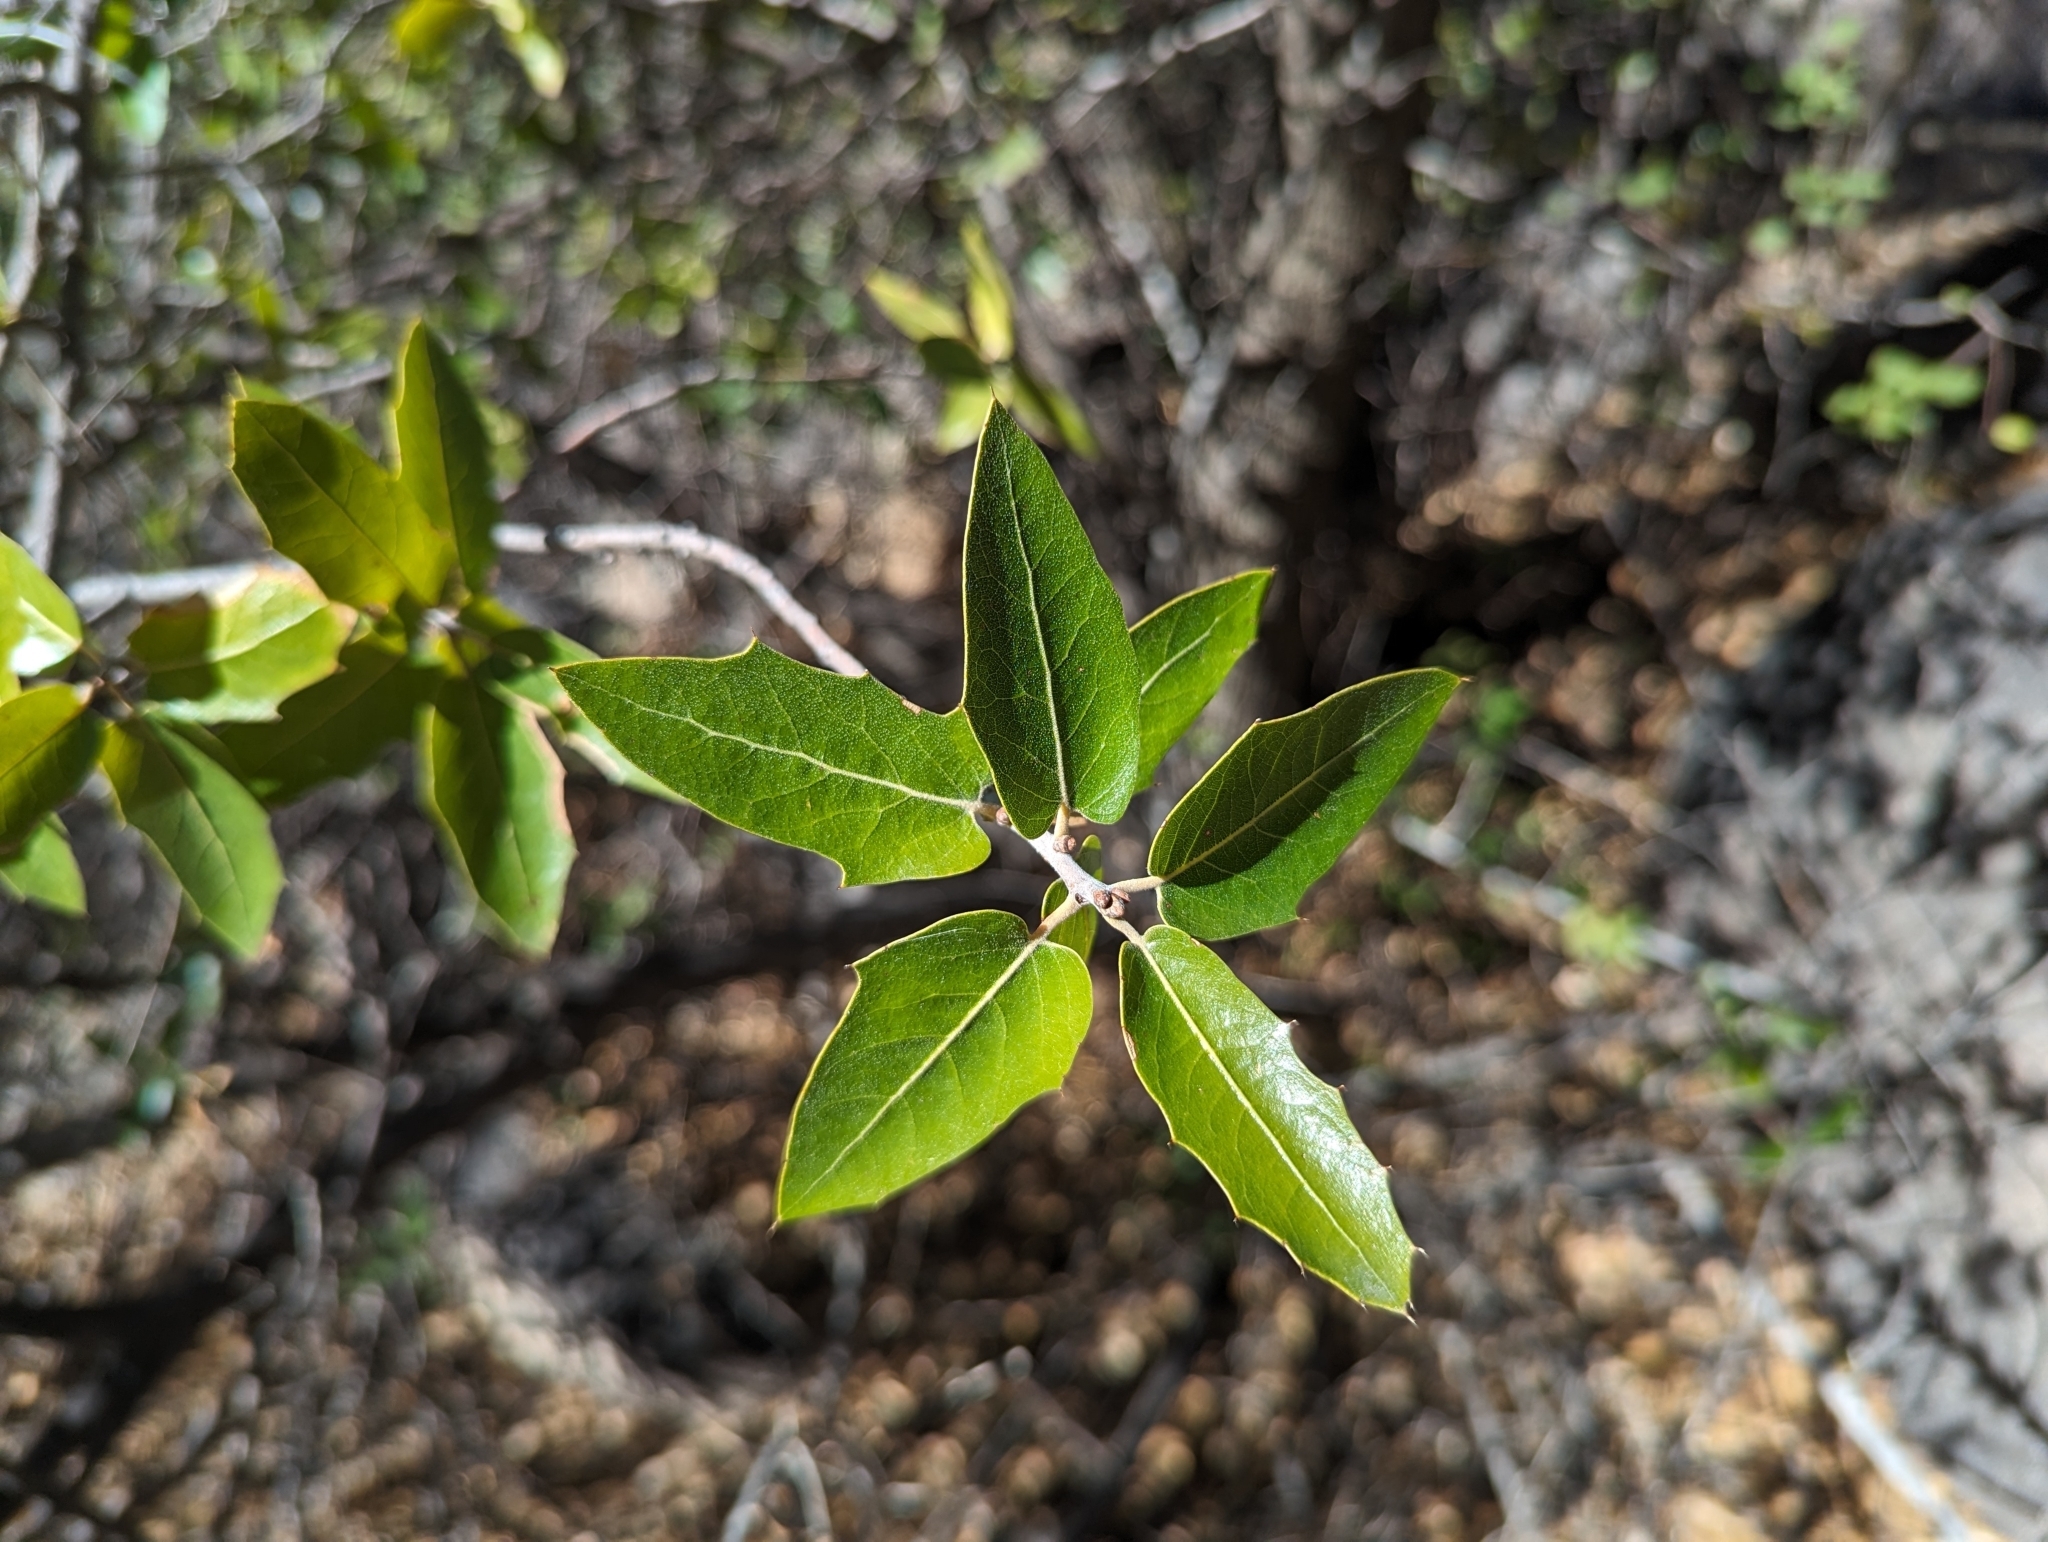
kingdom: Plantae
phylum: Tracheophyta
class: Magnoliopsida
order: Fagales
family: Fagaceae
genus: Quercus
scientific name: Quercus emoryi
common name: Emory oak
